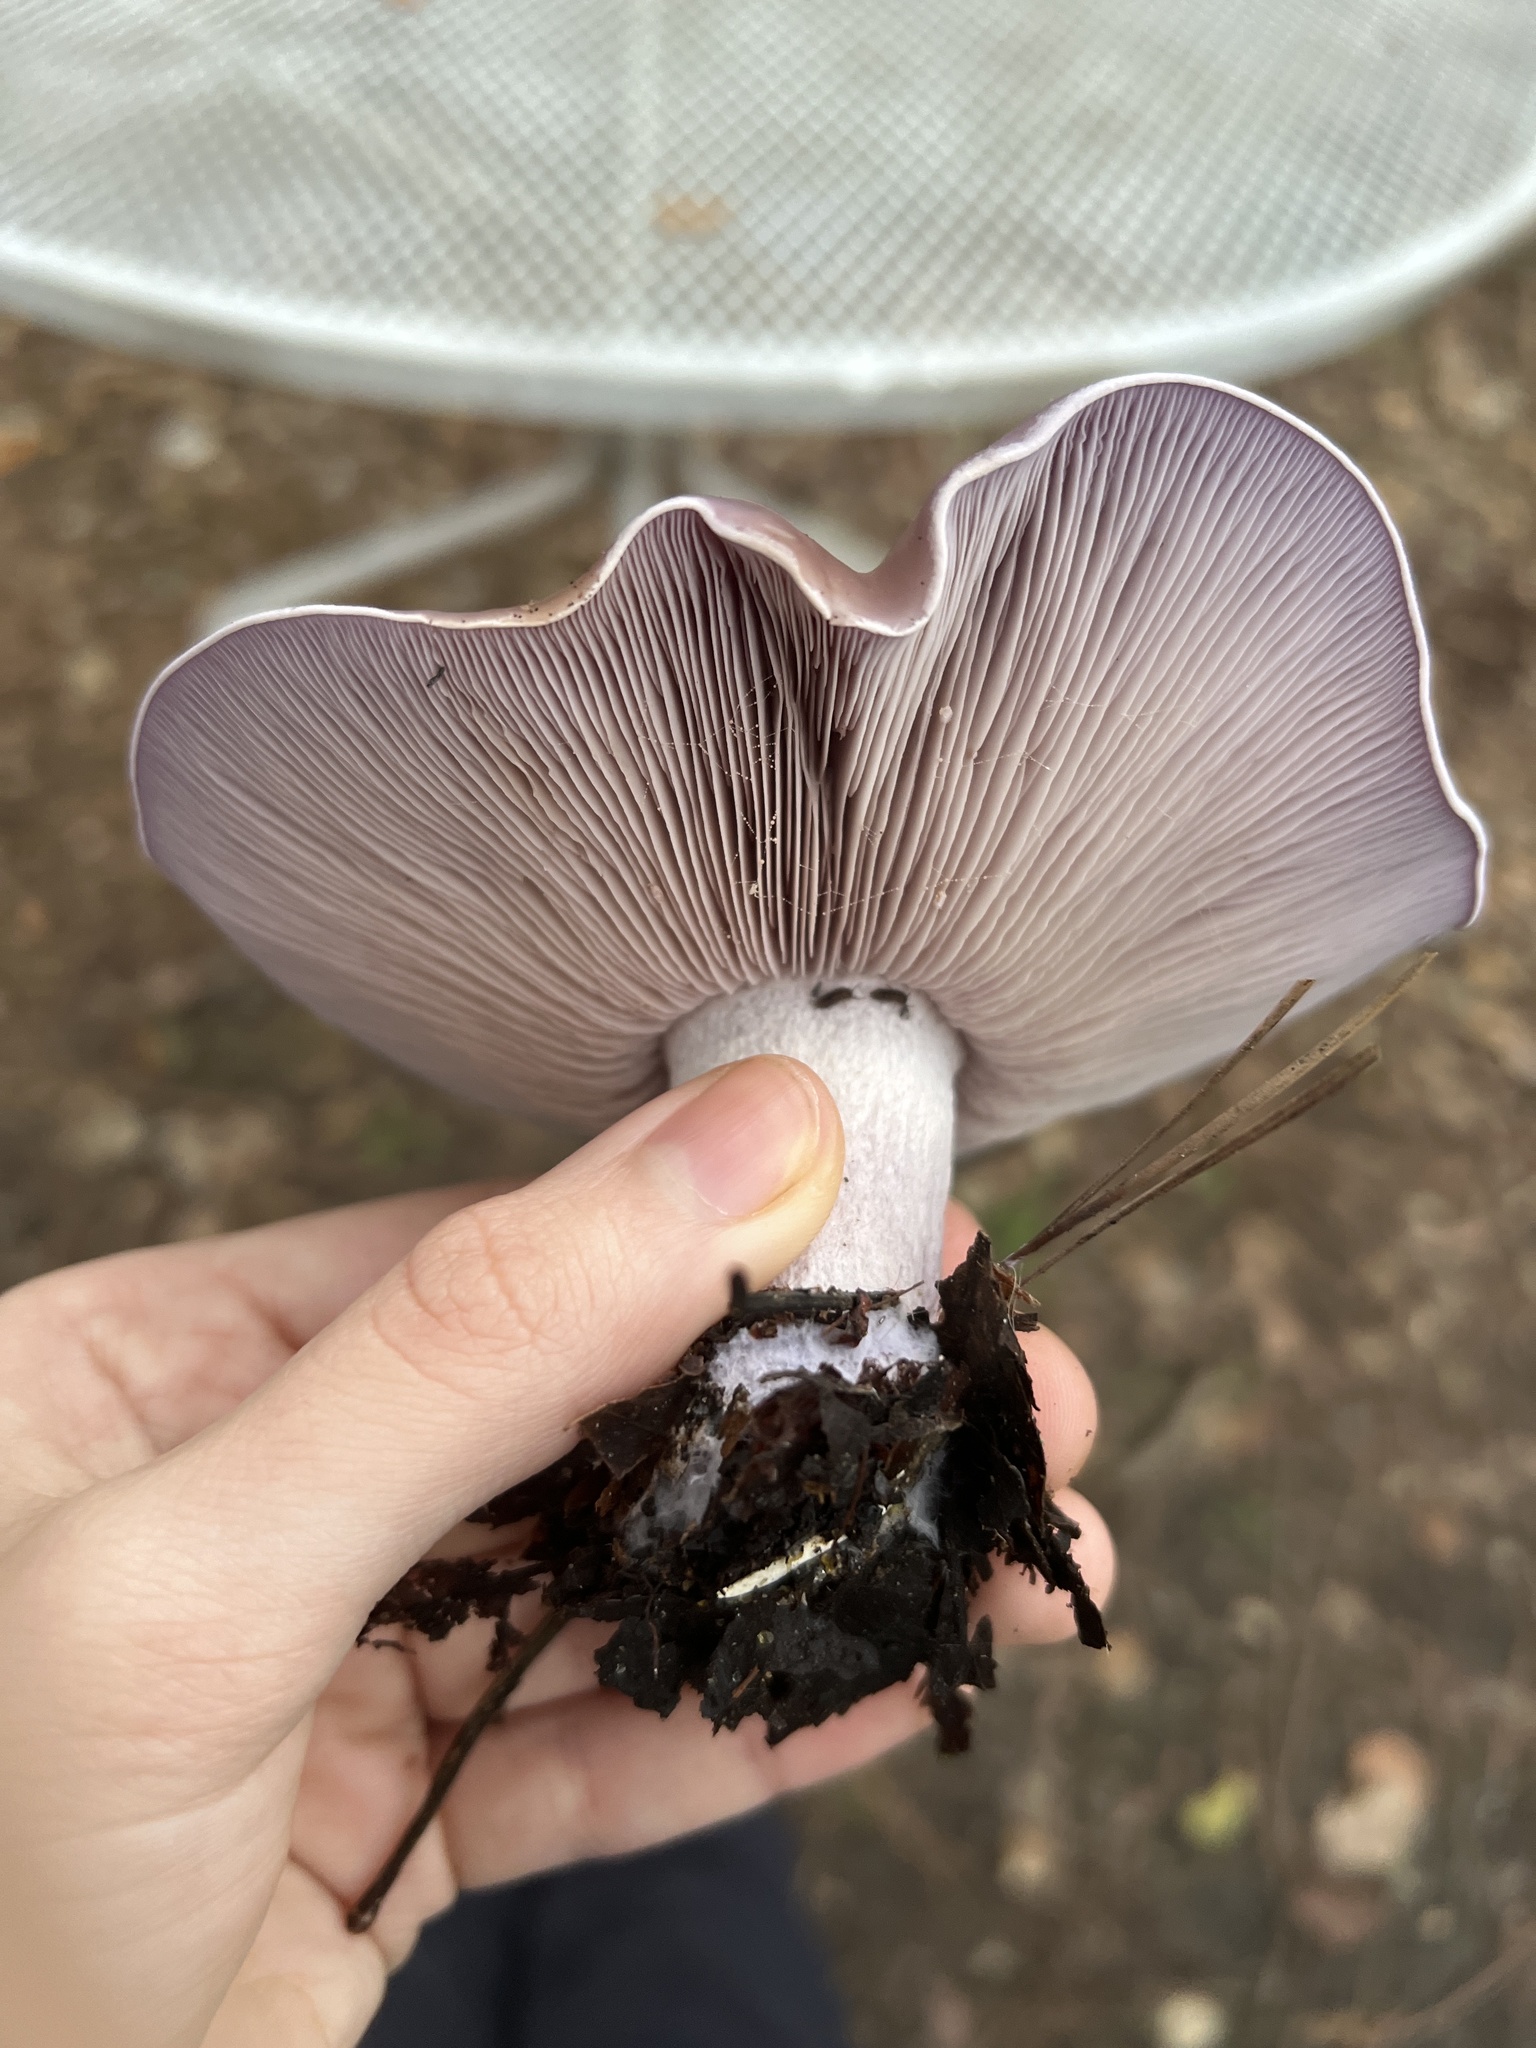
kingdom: Fungi
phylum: Basidiomycota
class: Agaricomycetes
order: Agaricales
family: Tricholomataceae
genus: Collybia
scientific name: Collybia
